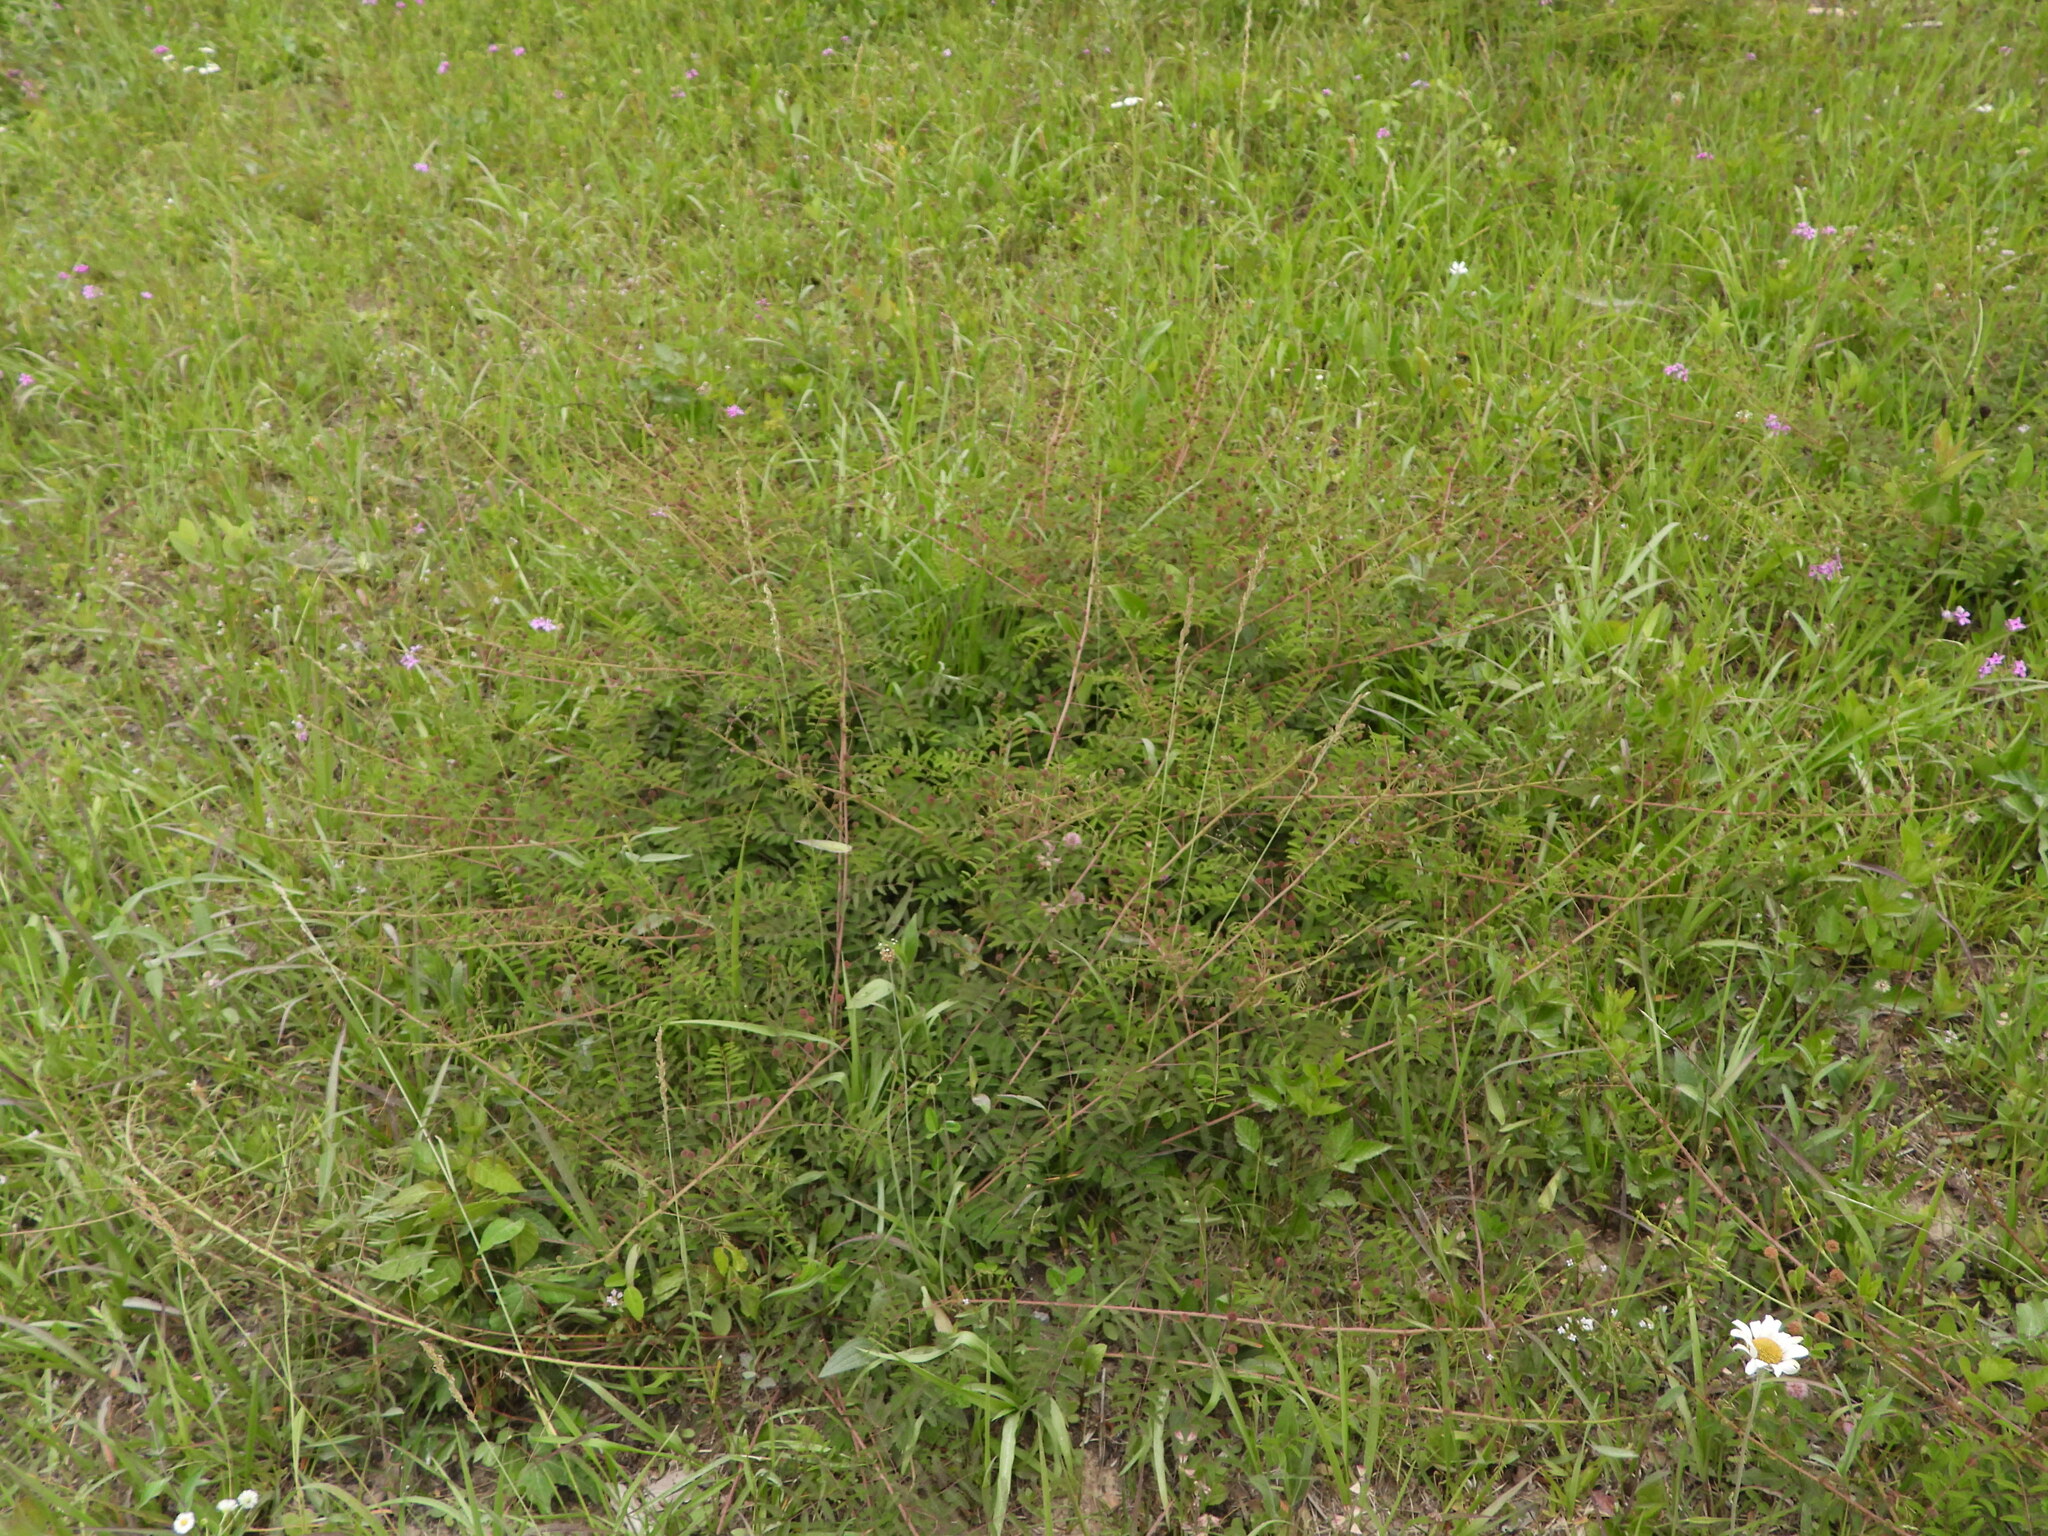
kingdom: Plantae
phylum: Tracheophyta
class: Magnoliopsida
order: Fabales
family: Fabaceae
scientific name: Fabaceae
